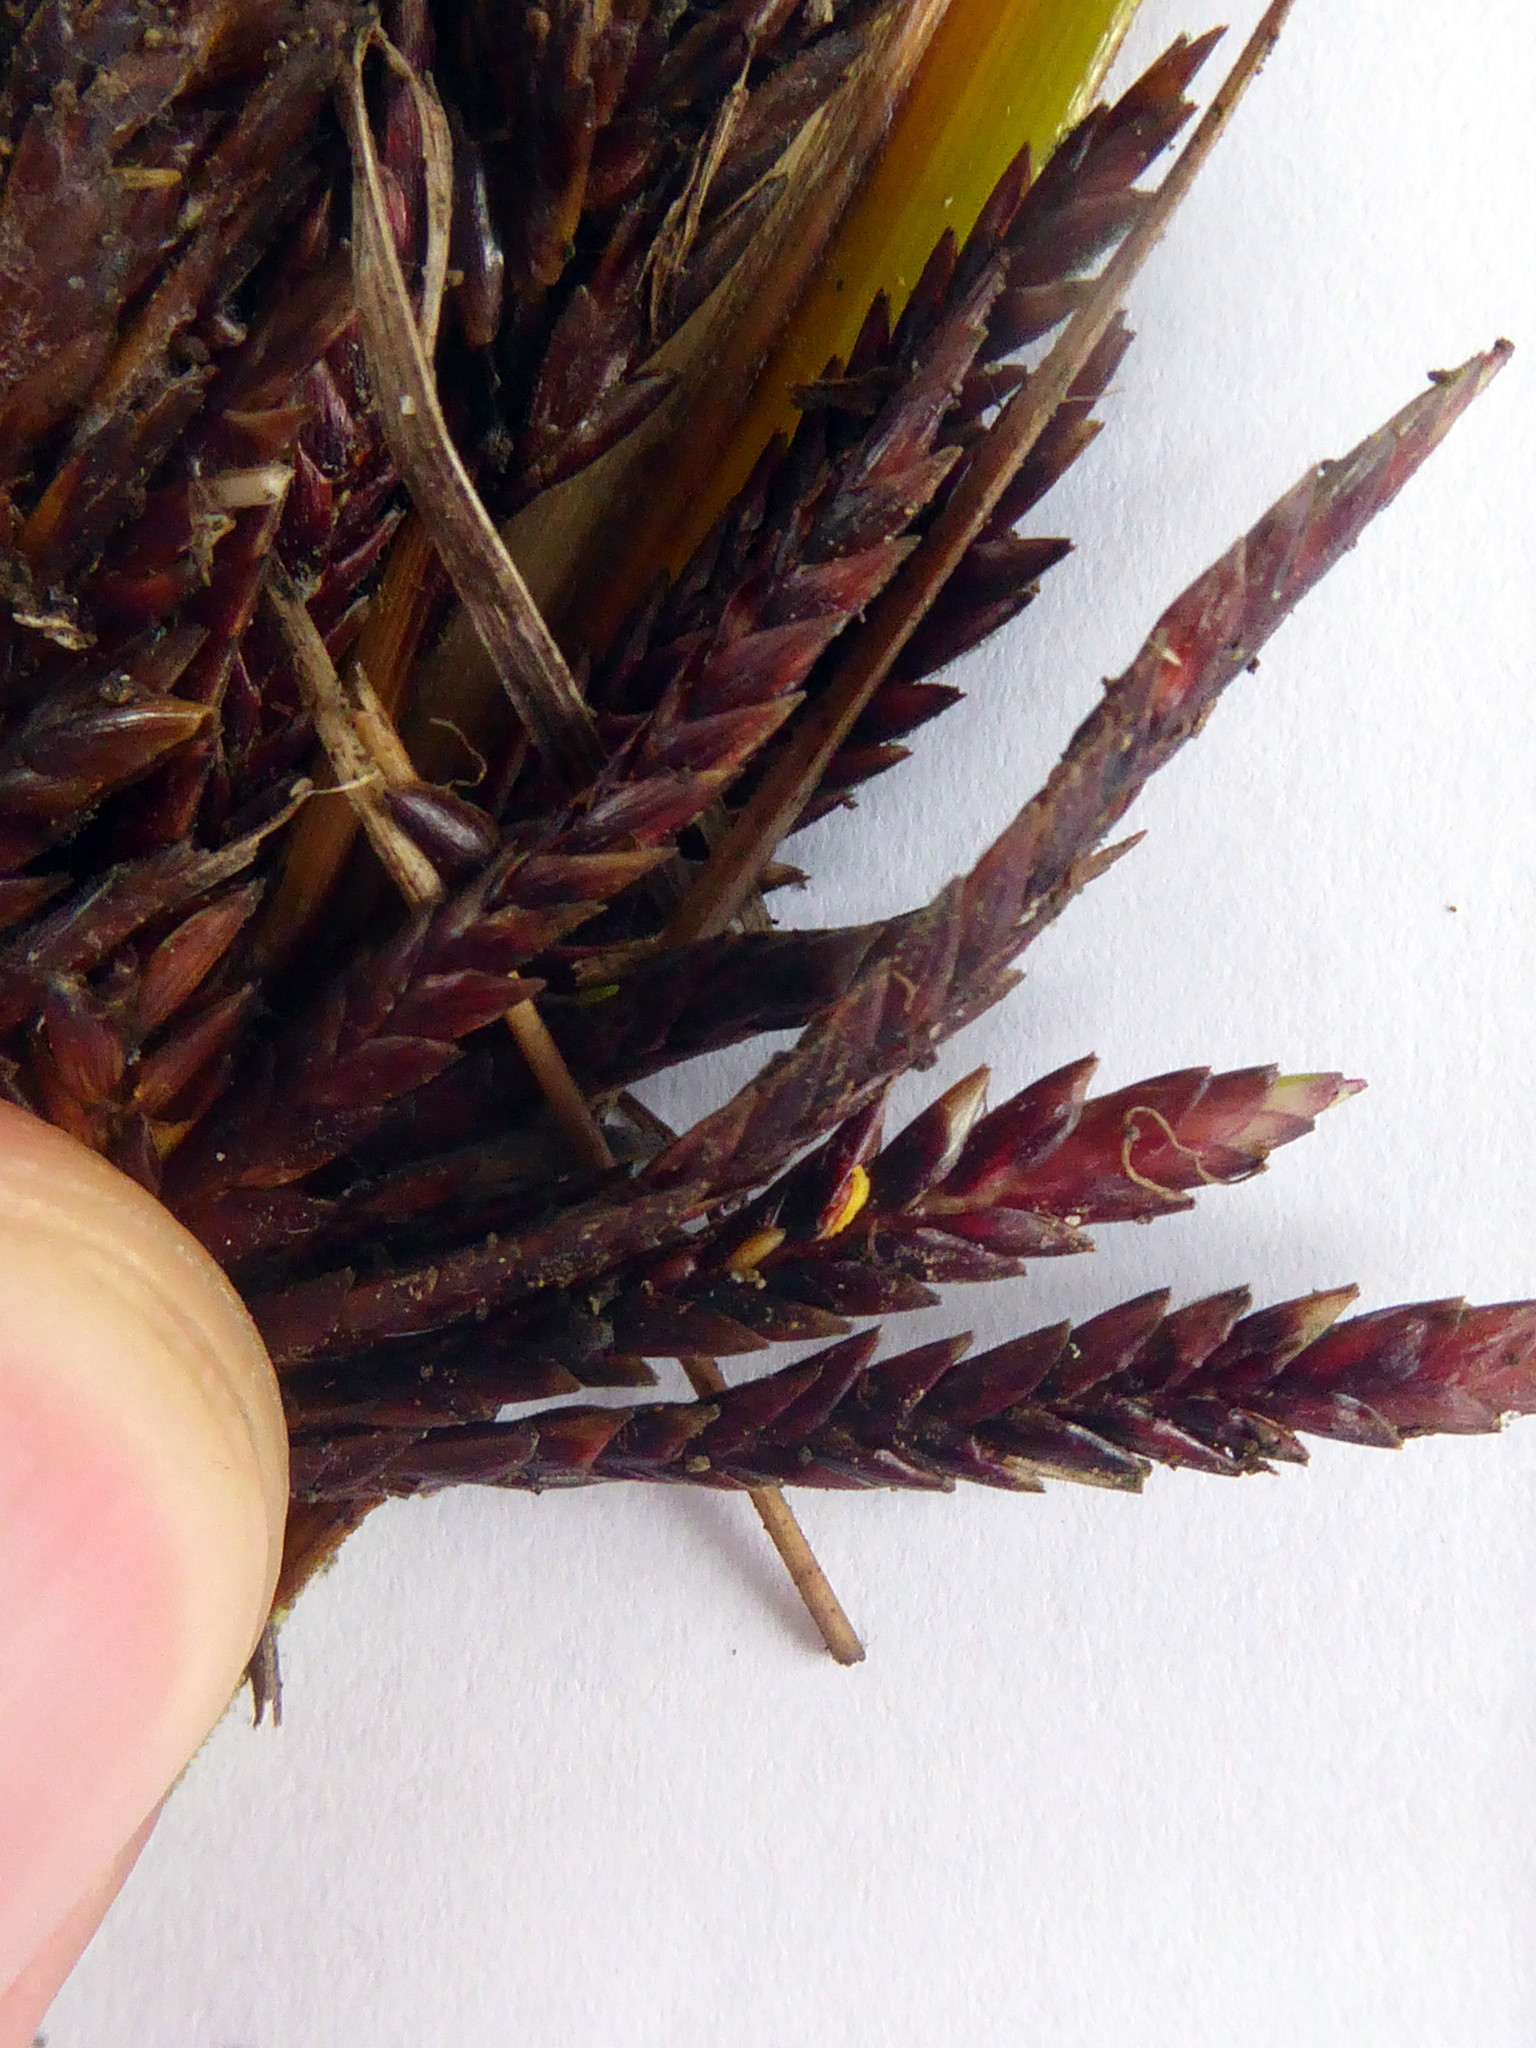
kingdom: Fungi
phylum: Basidiomycota
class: Microbotryomycetes
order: Microbotryales
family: Microbotryaceae
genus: Bauerago
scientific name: Bauerago gardneri
